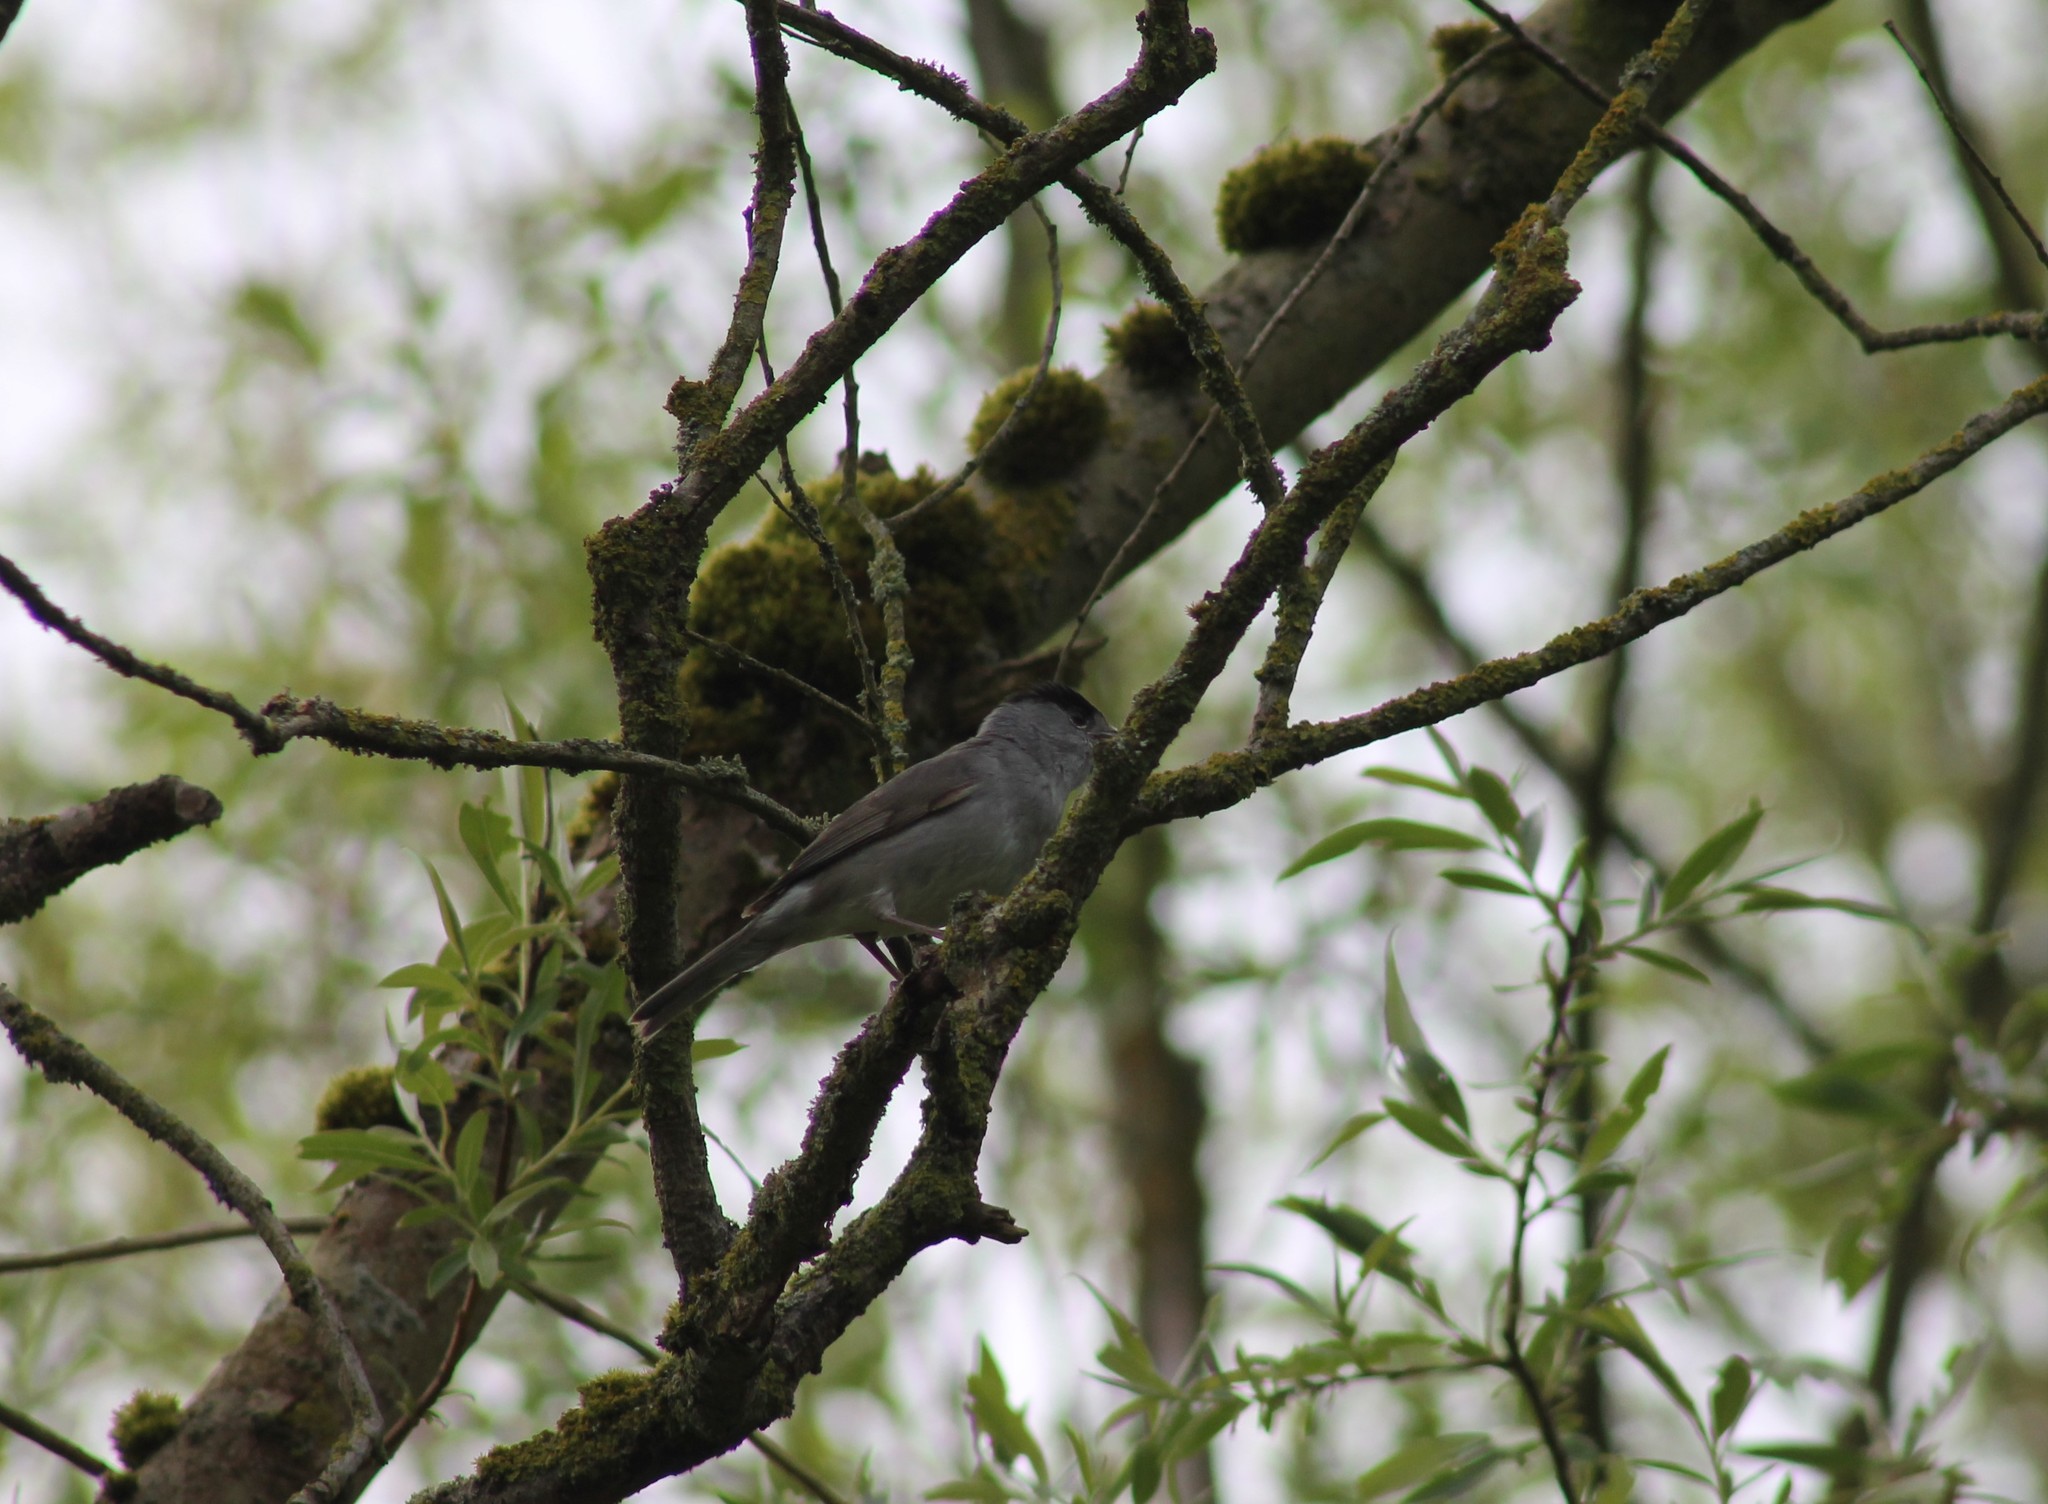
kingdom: Animalia
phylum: Chordata
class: Aves
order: Passeriformes
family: Sylviidae
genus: Sylvia
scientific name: Sylvia atricapilla
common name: Eurasian blackcap
